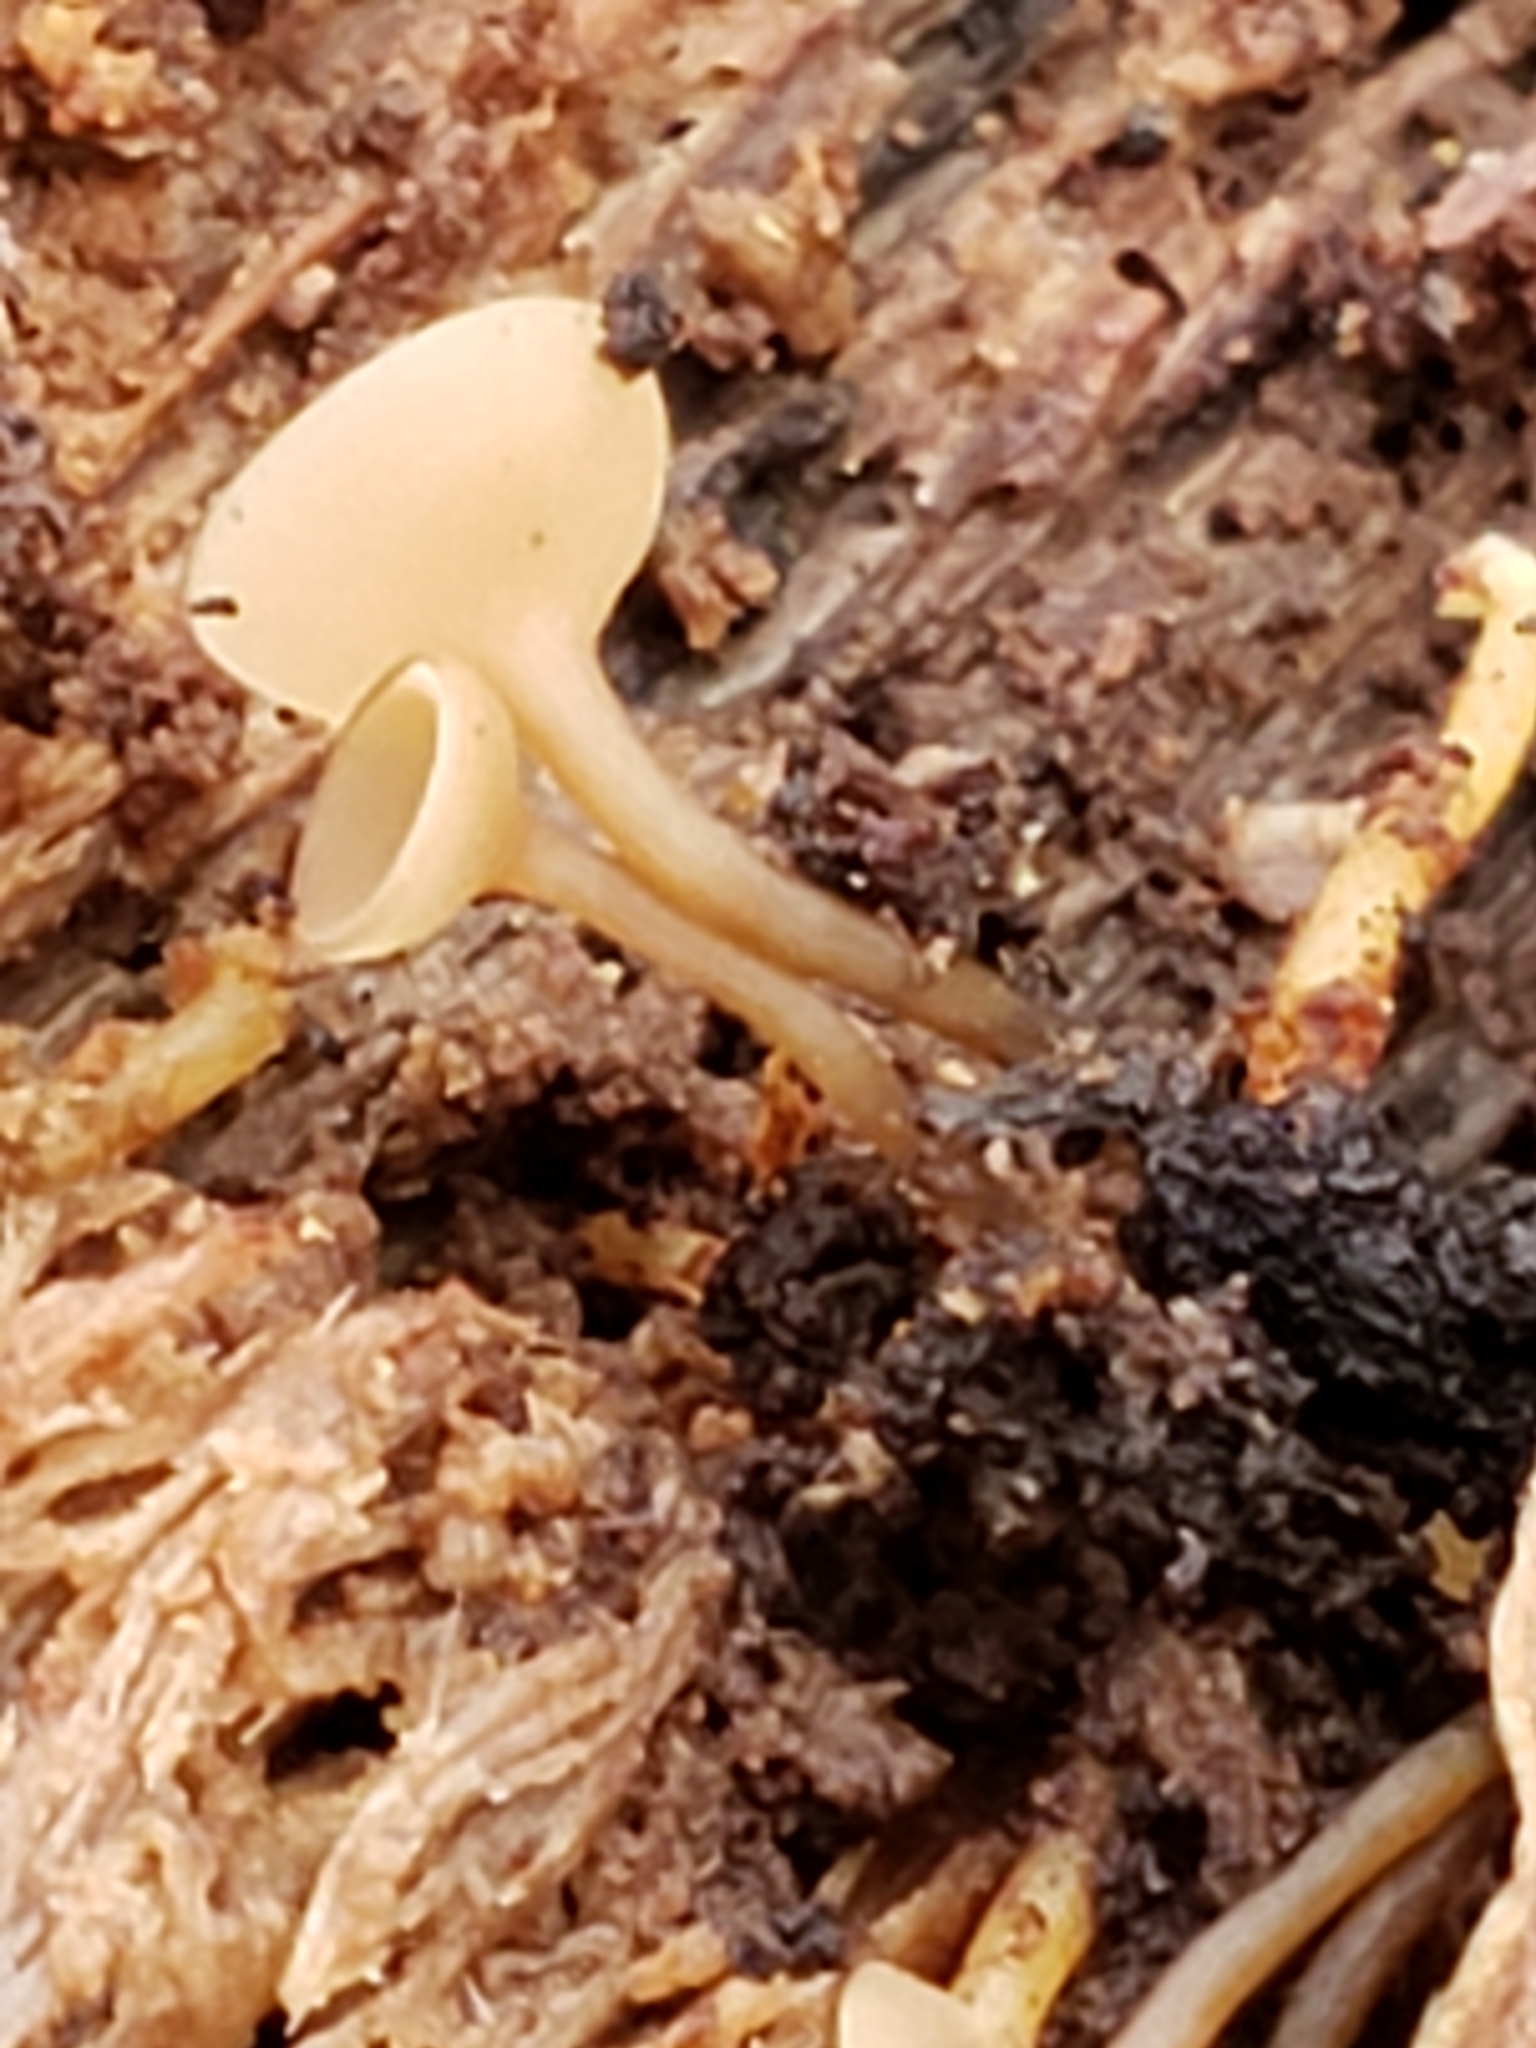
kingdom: Fungi
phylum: Ascomycota
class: Leotiomycetes
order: Helotiales
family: Sclerotiniaceae
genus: Ciboria
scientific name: Ciboria amentacea
